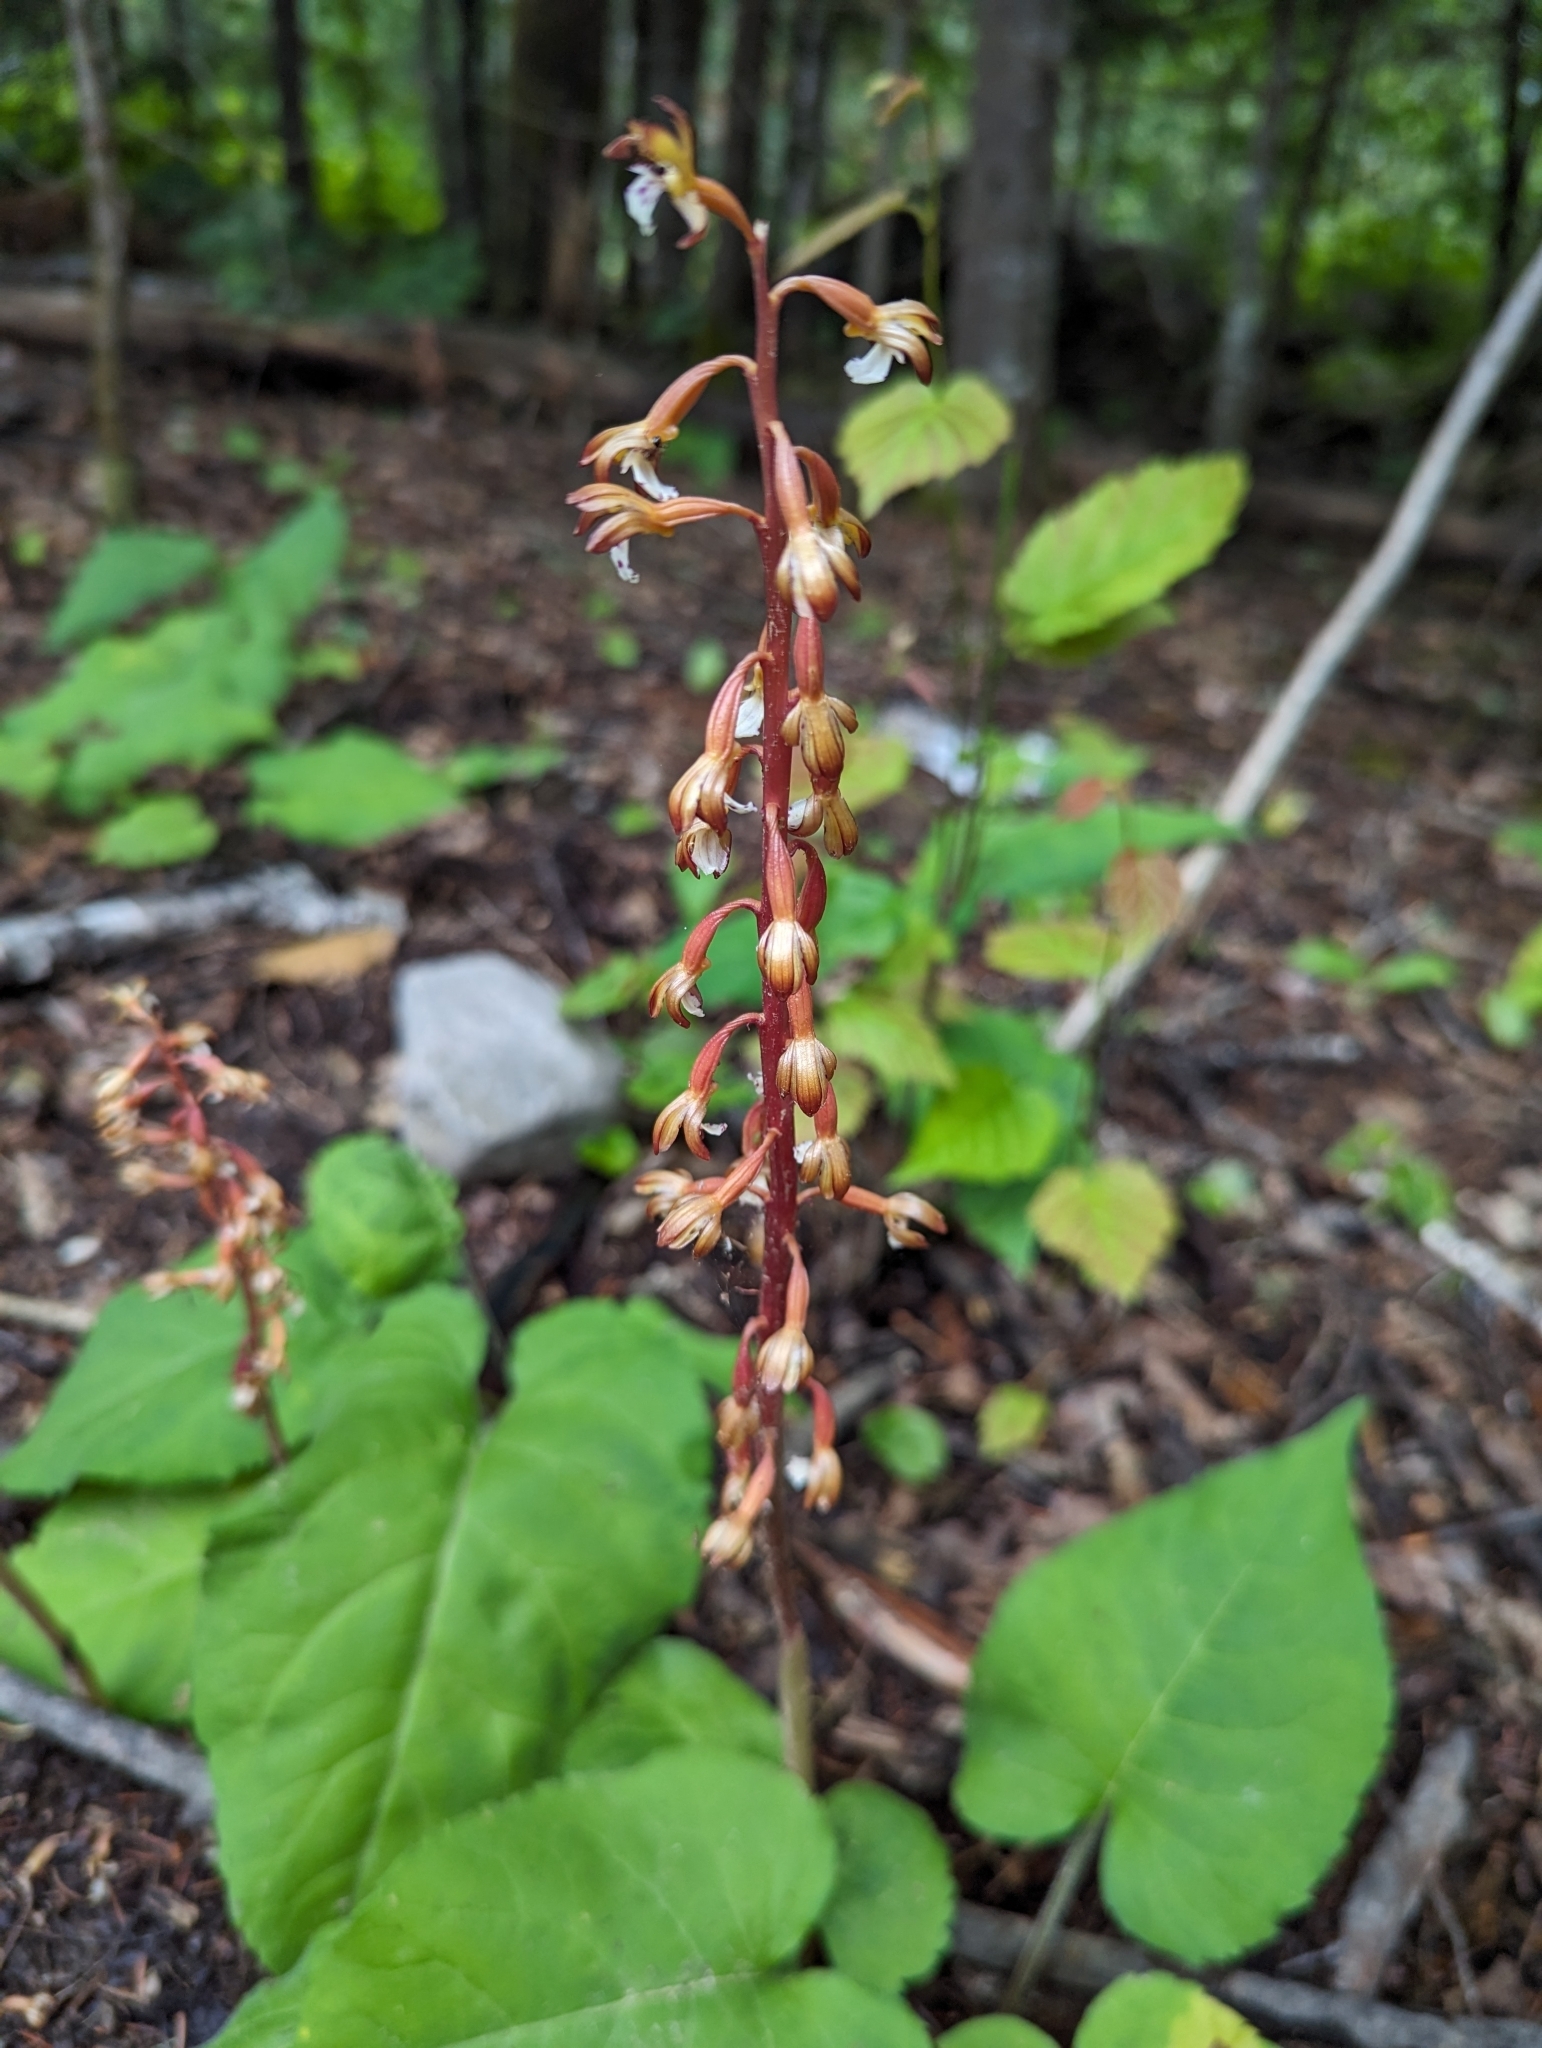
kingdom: Plantae
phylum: Tracheophyta
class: Liliopsida
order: Asparagales
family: Orchidaceae
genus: Corallorhiza
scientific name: Corallorhiza maculata
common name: Spotted coralroot
